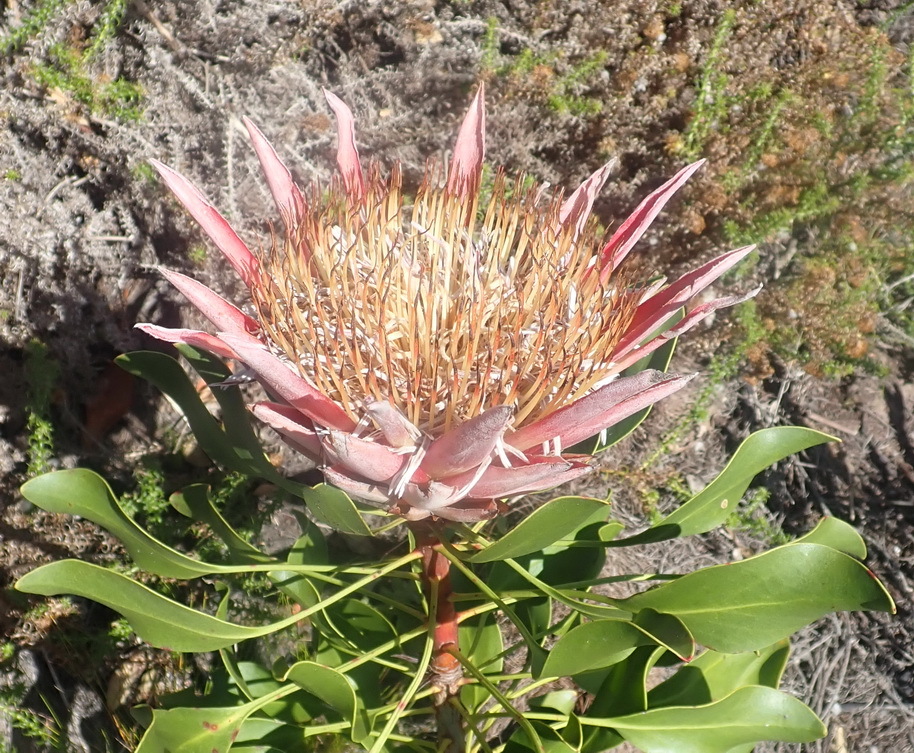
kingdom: Plantae
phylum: Tracheophyta
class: Magnoliopsida
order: Proteales
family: Proteaceae
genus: Protea
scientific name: Protea cynaroides
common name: King protea
